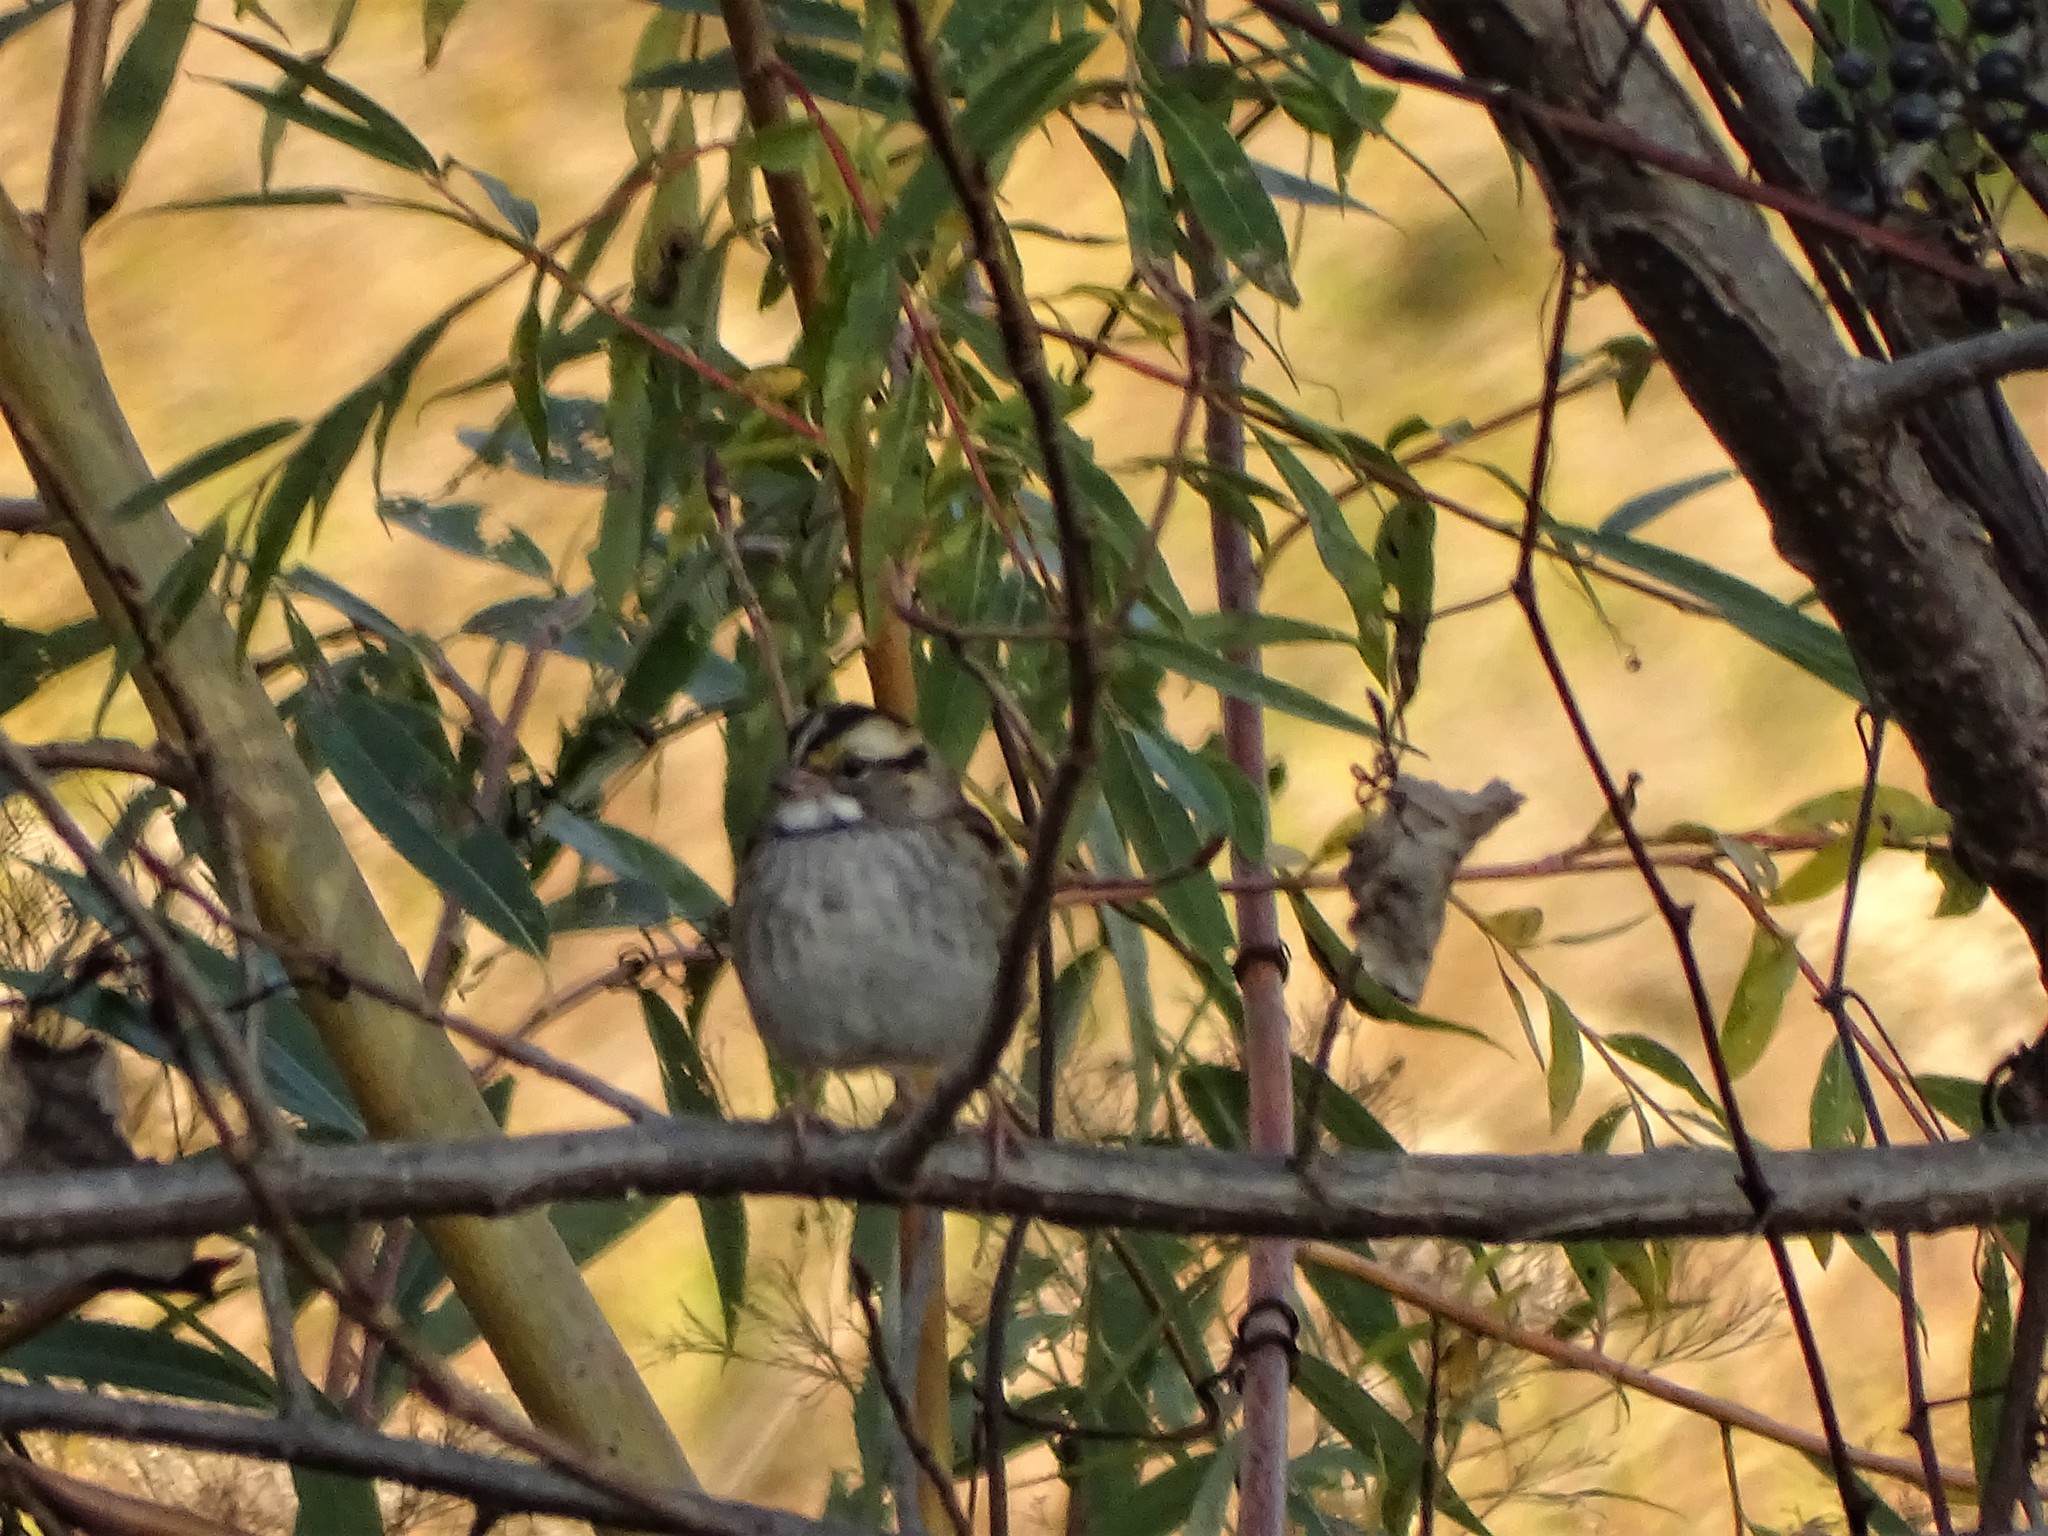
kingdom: Animalia
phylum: Chordata
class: Aves
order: Passeriformes
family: Passerellidae
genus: Zonotrichia
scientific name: Zonotrichia albicollis
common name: White-throated sparrow
